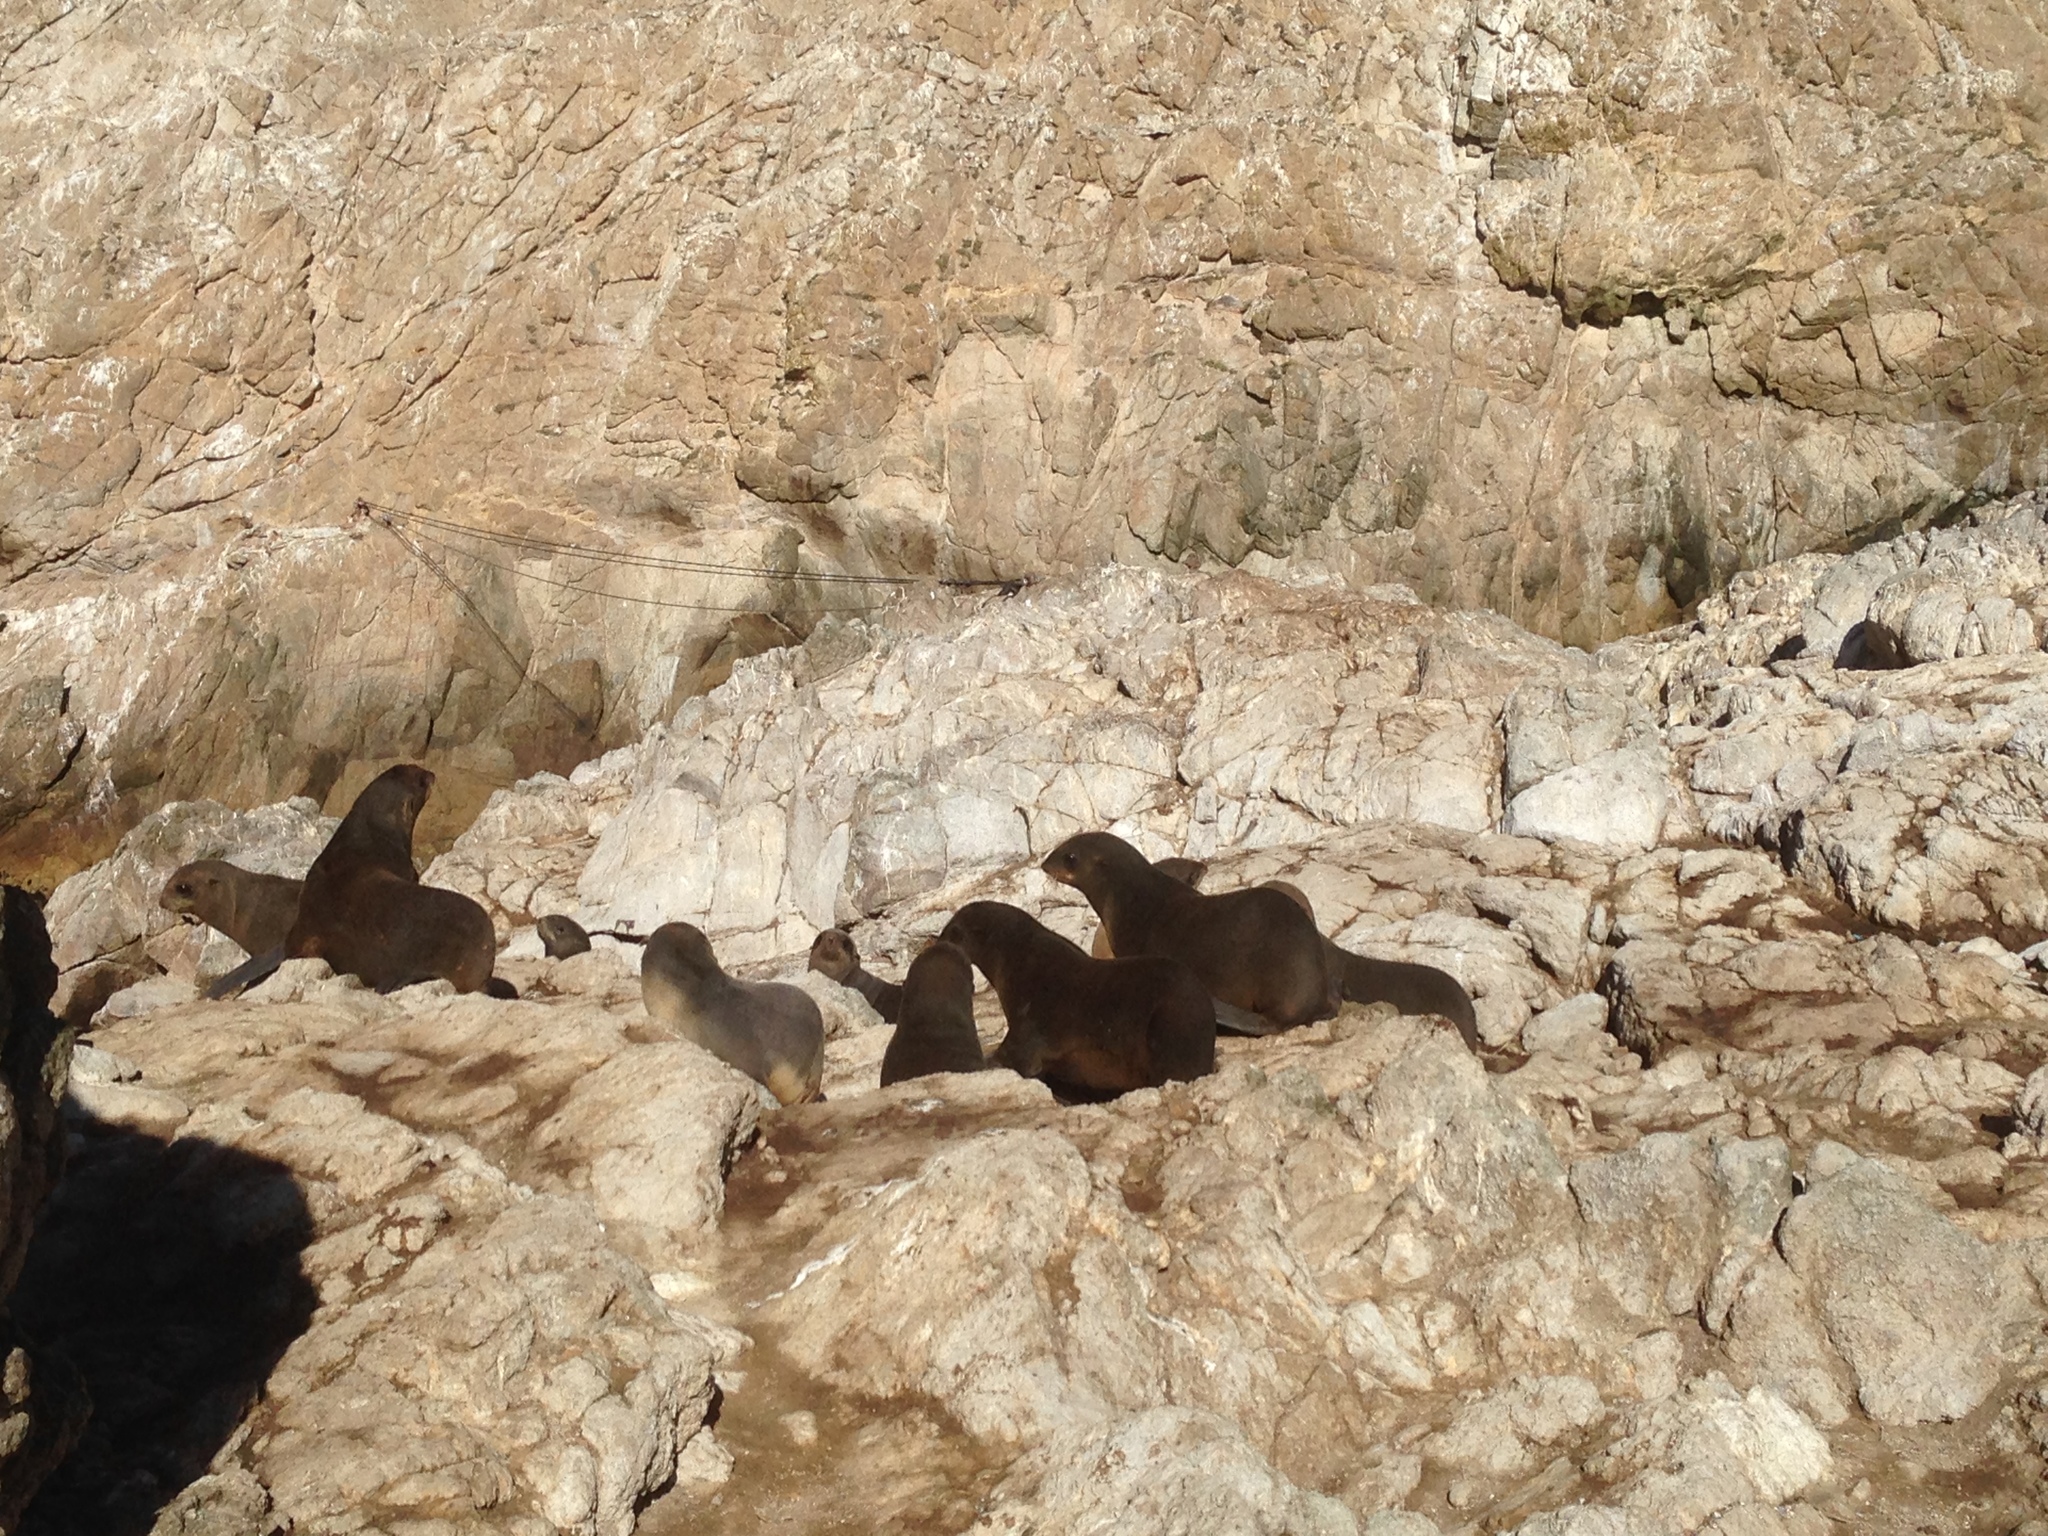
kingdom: Animalia
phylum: Chordata
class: Mammalia
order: Carnivora
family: Otariidae
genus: Callorhinus
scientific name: Callorhinus ursinus
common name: Northern fur seal
